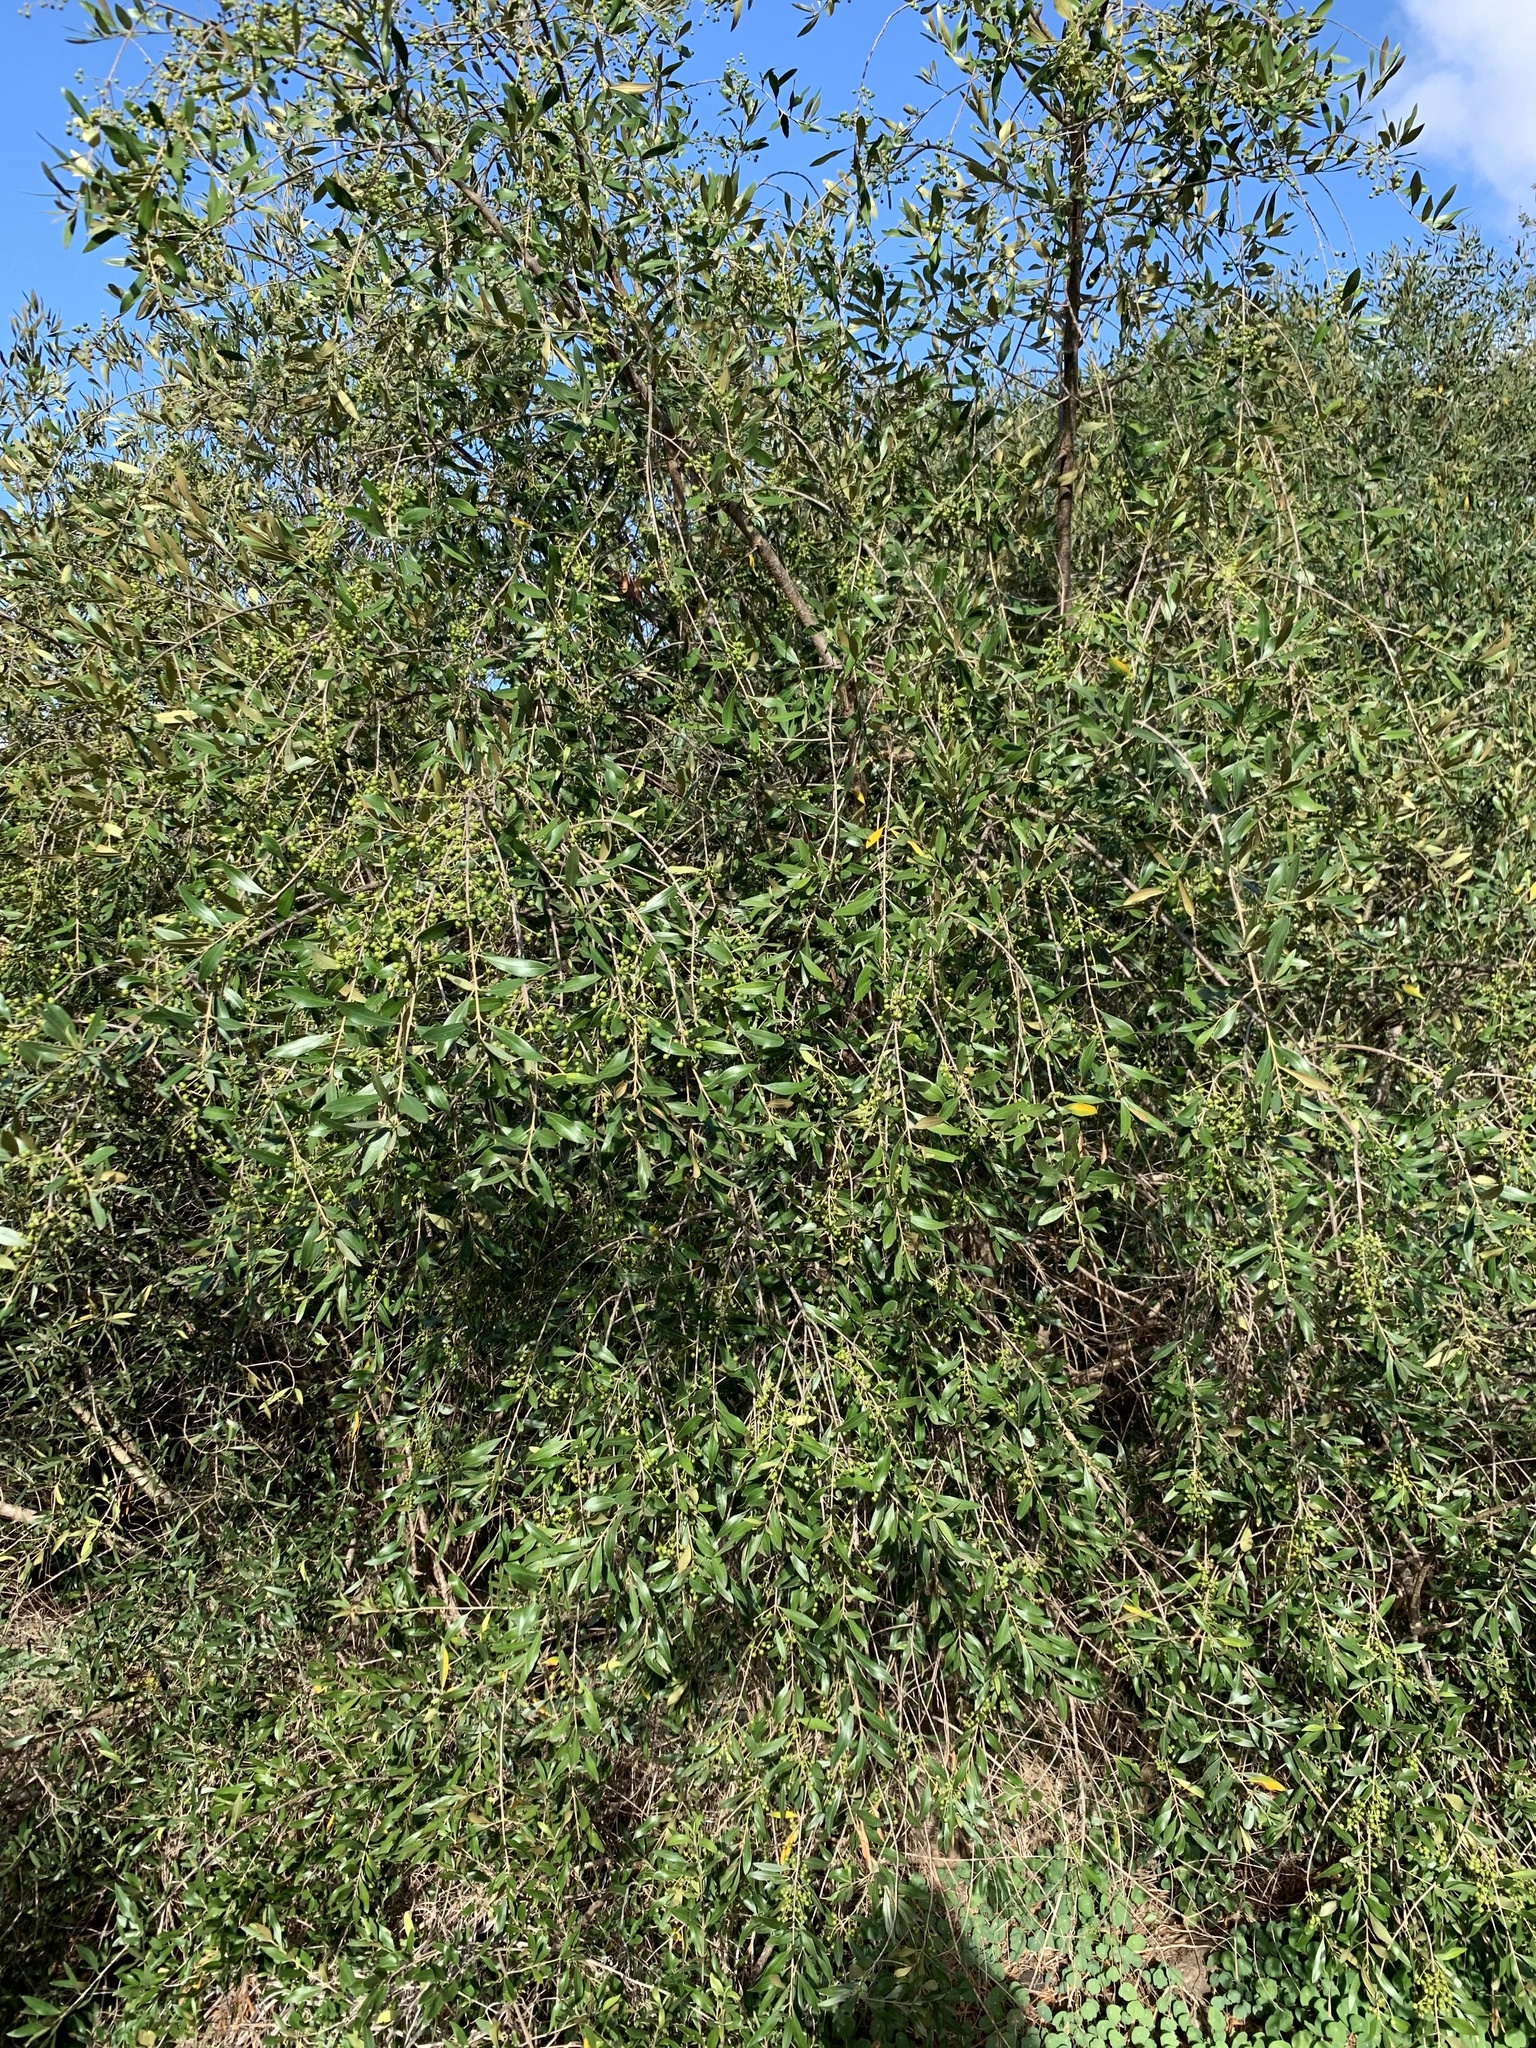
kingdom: Plantae
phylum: Tracheophyta
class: Magnoliopsida
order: Lamiales
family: Oleaceae
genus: Olea
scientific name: Olea europaea
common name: Olive
